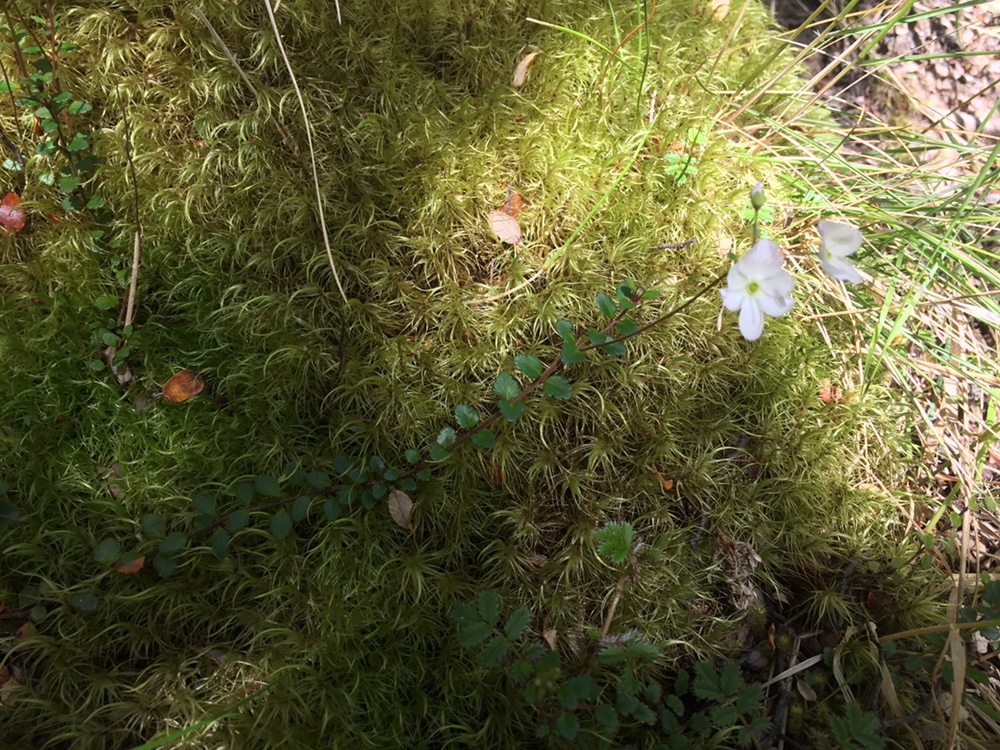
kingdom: Plantae
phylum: Tracheophyta
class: Magnoliopsida
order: Lamiales
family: Plantaginaceae
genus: Veronica
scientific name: Veronica lyallii
